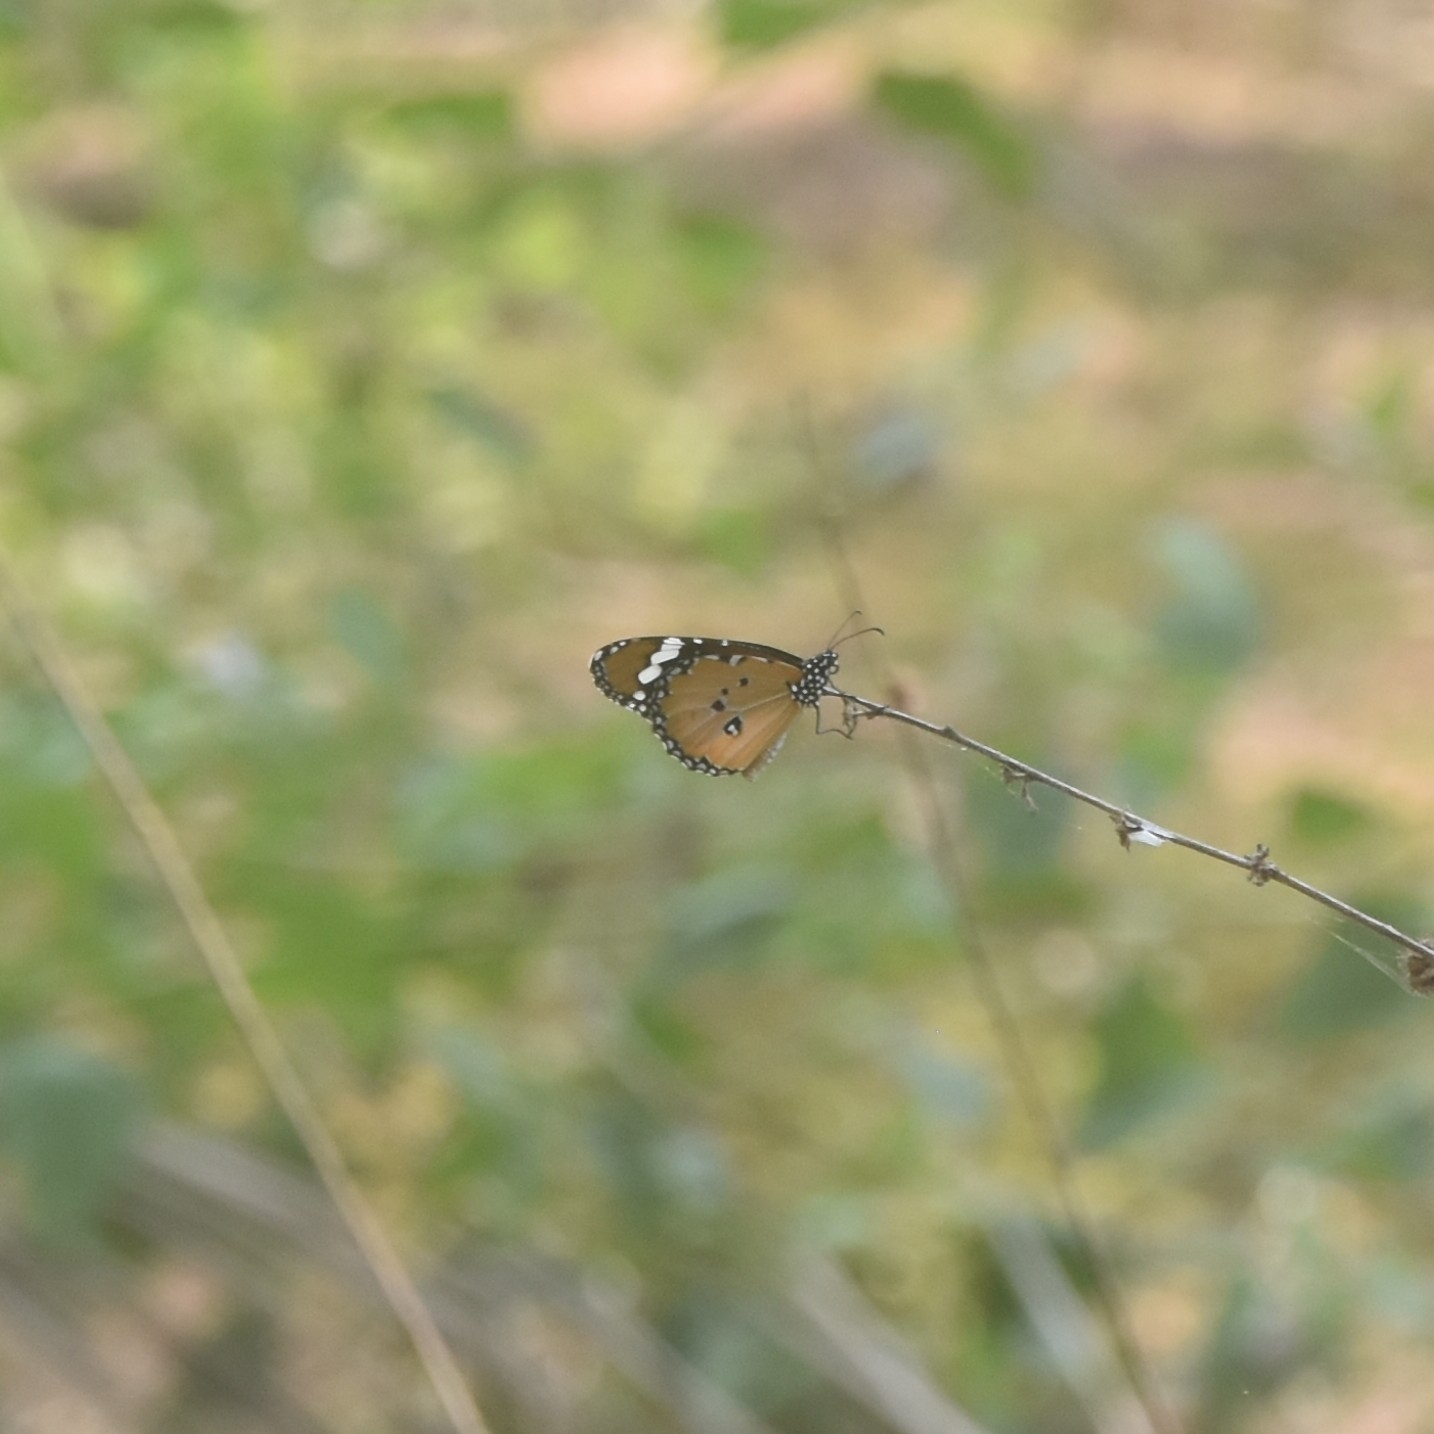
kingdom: Animalia
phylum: Arthropoda
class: Insecta
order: Lepidoptera
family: Nymphalidae
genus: Danaus
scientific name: Danaus chrysippus
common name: Plain tiger
